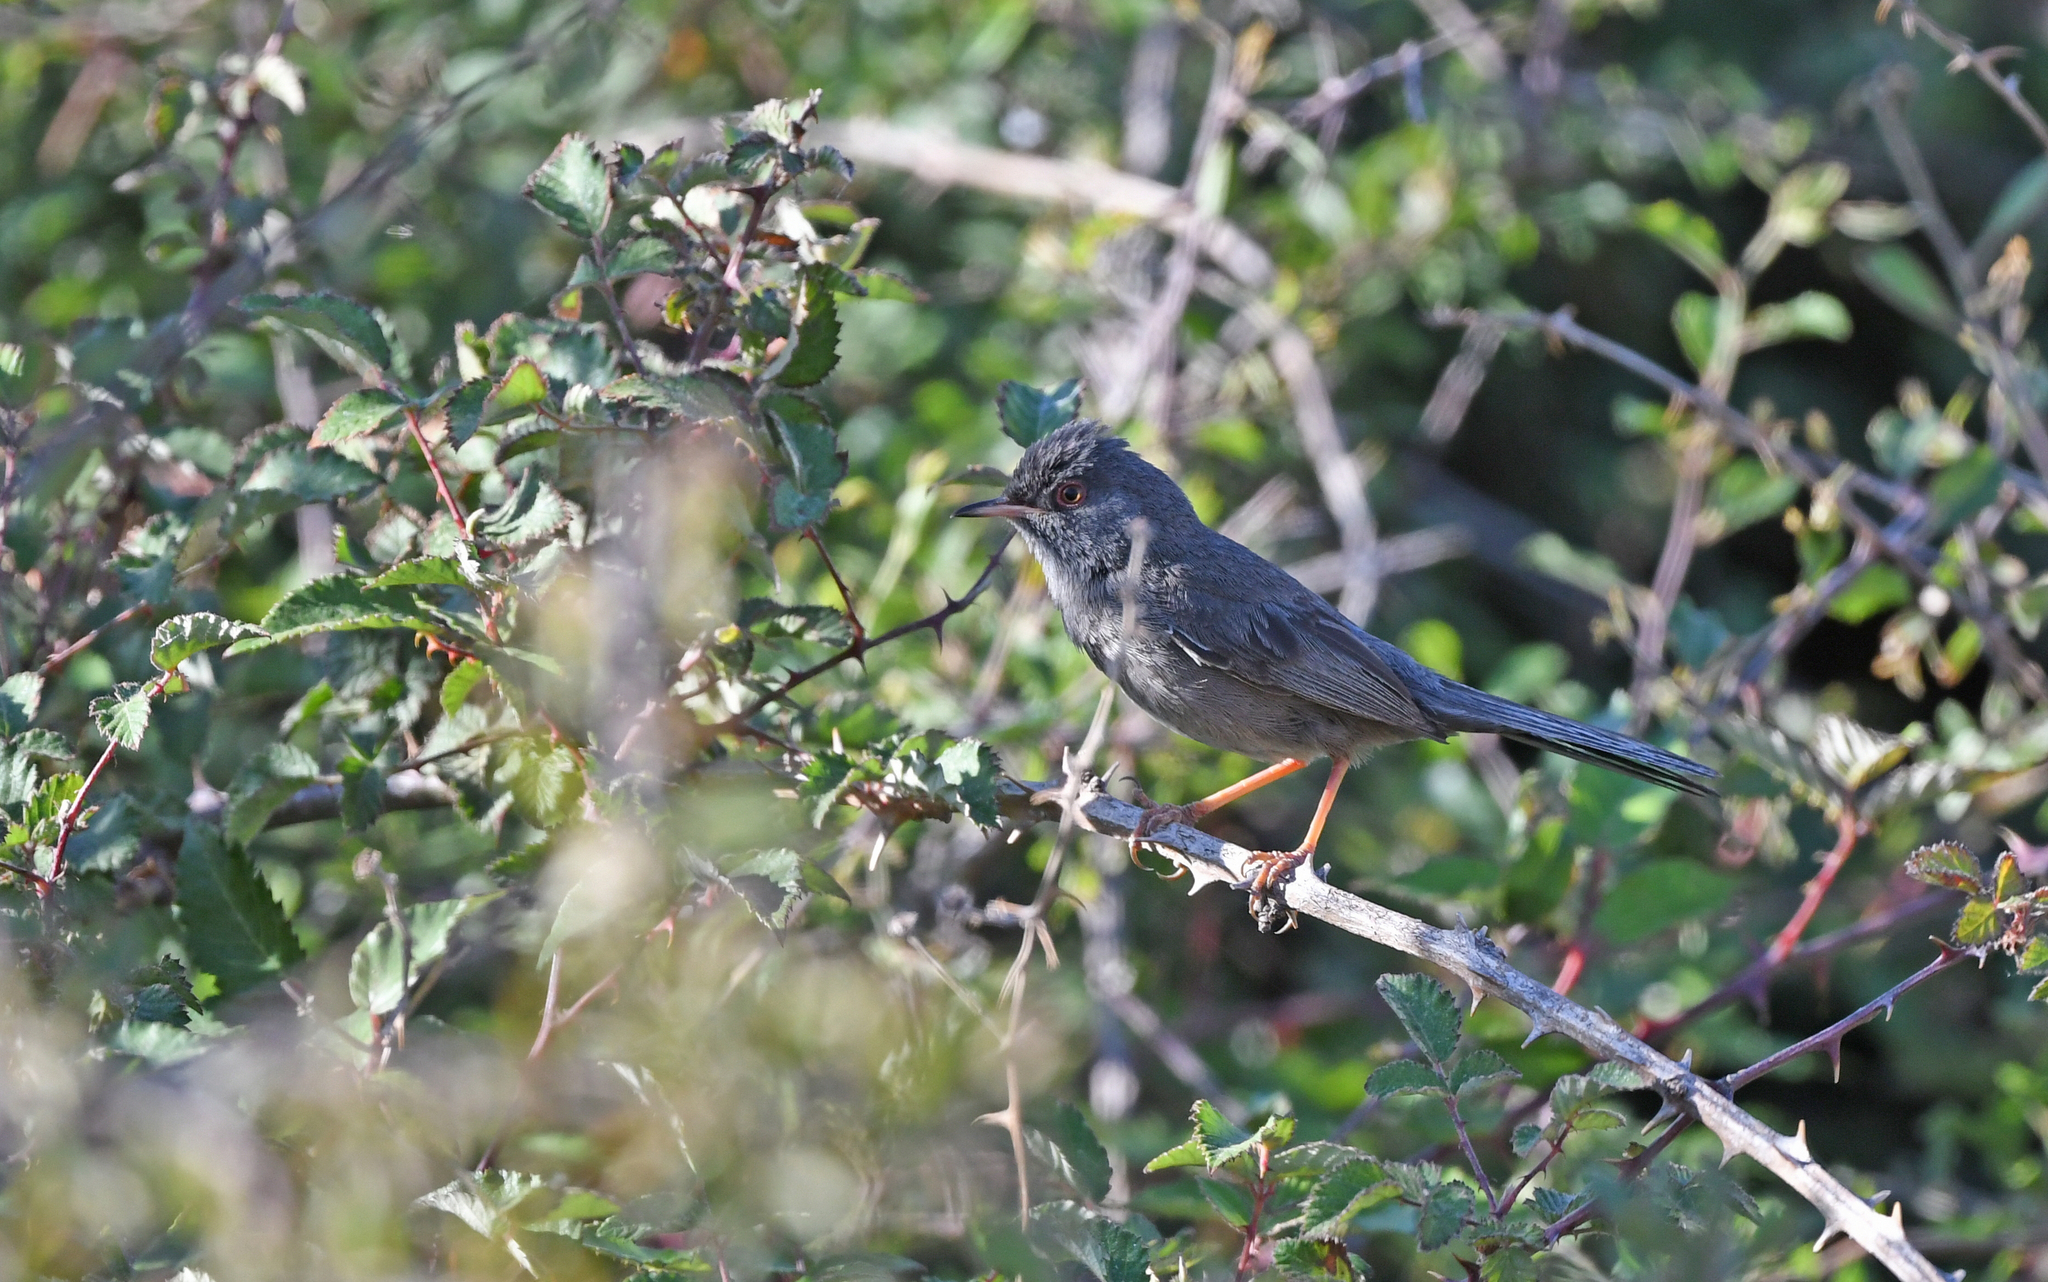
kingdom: Animalia
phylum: Chordata
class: Aves
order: Passeriformes
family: Sylviidae
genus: Sylvia
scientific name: Sylvia sarda
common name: Marmora's warbler
